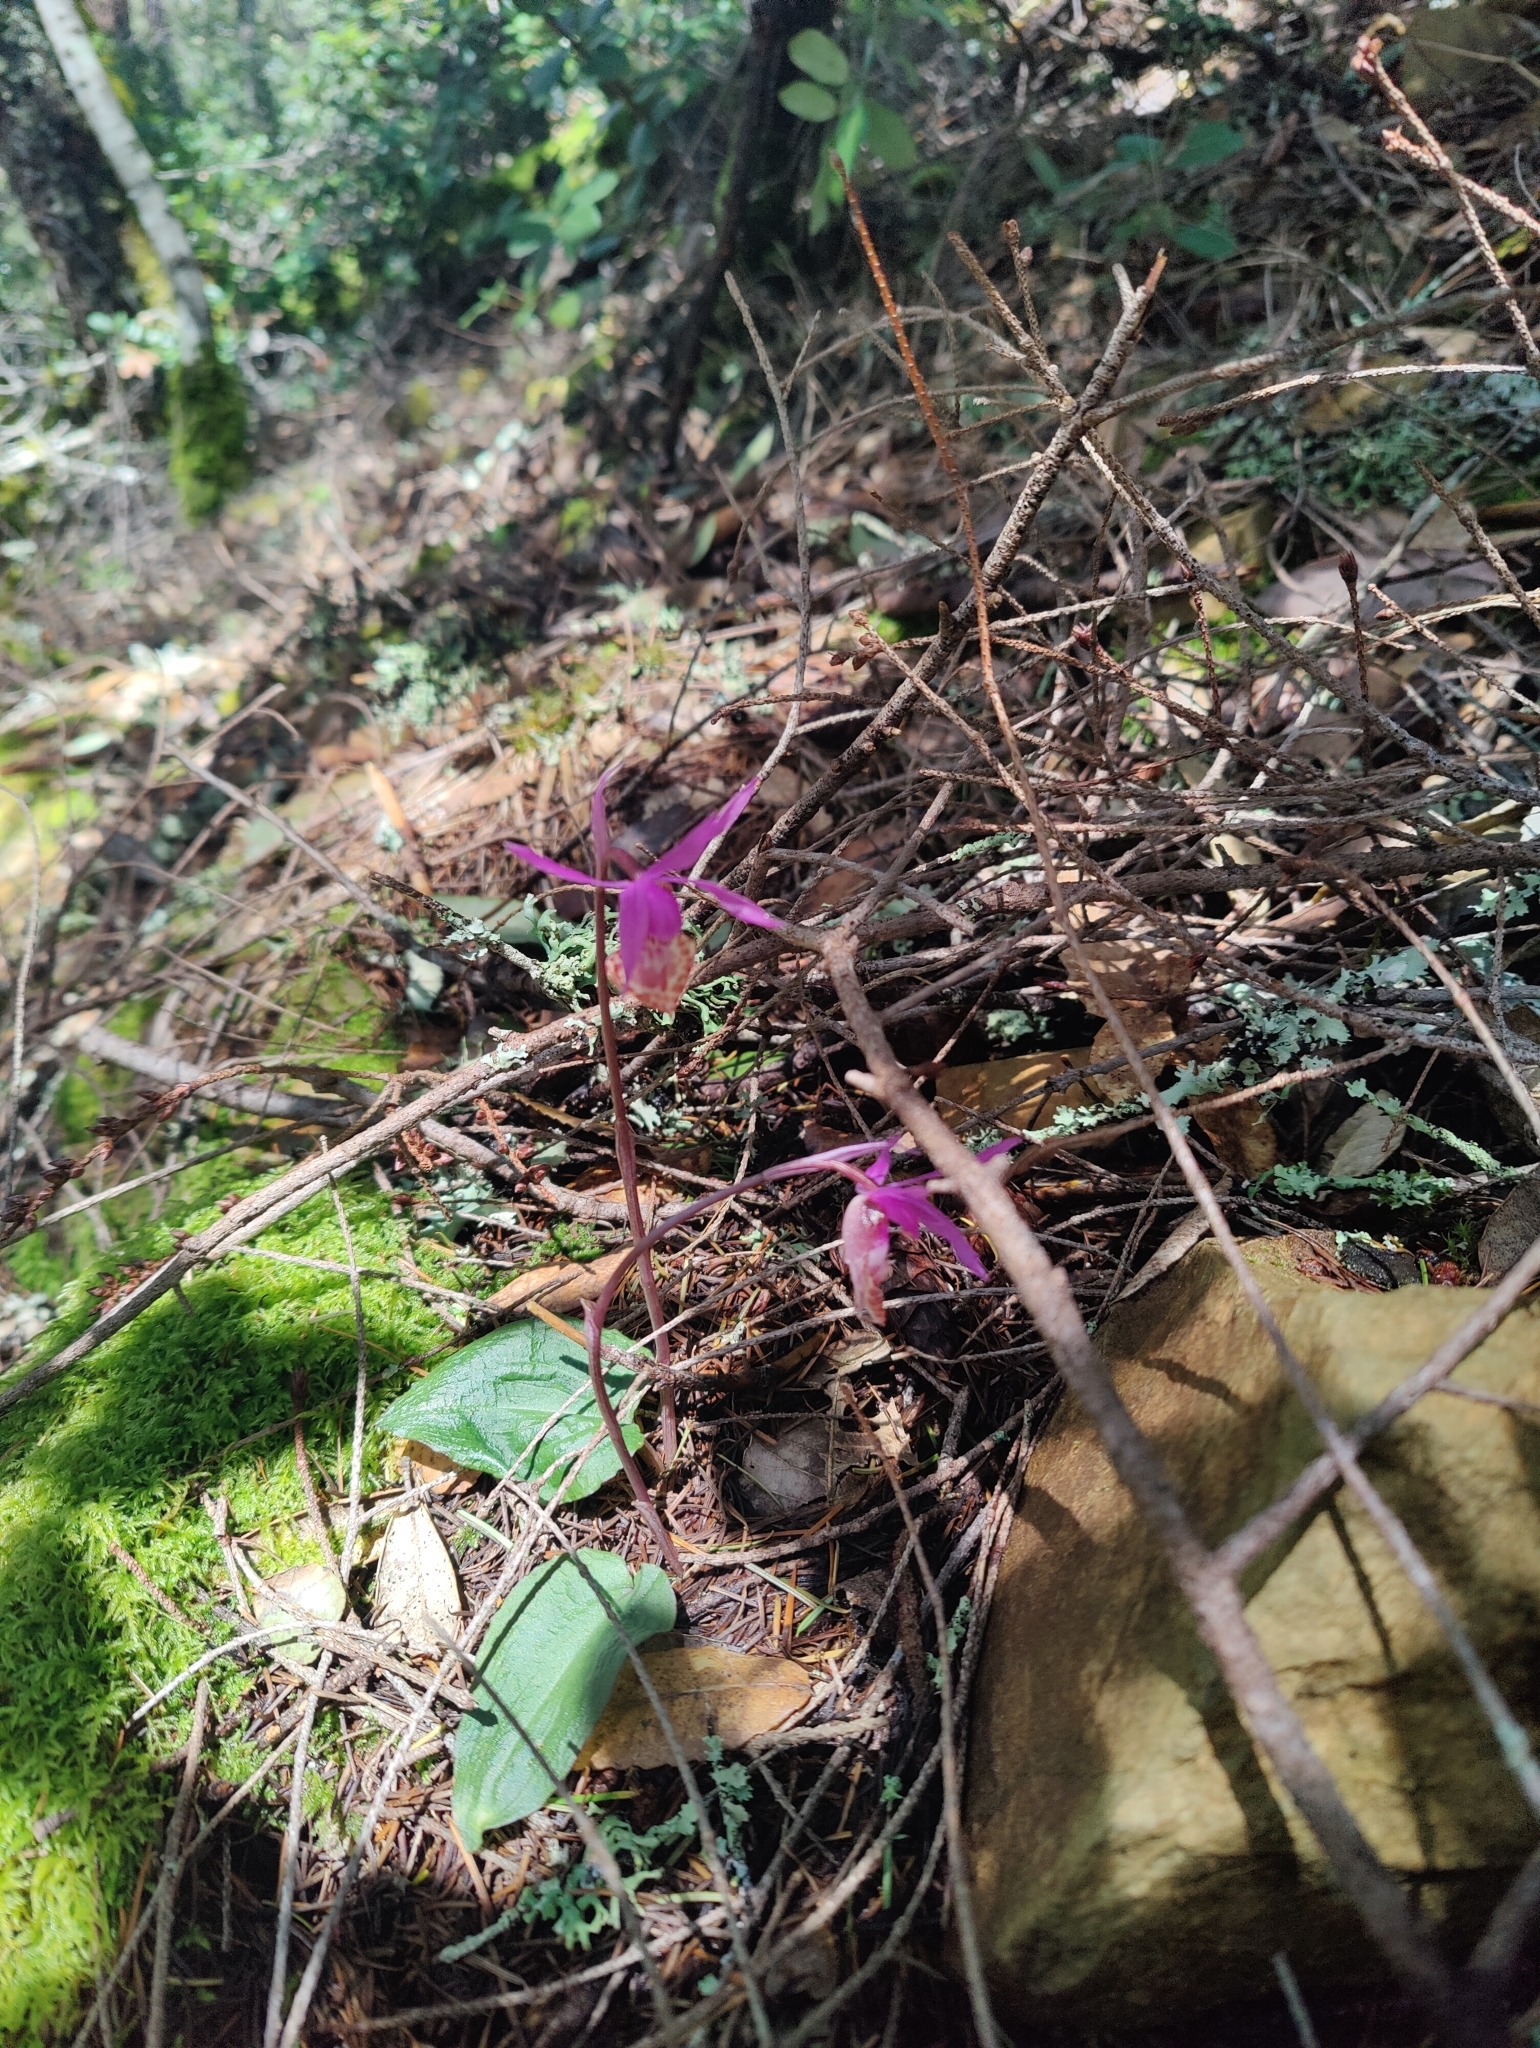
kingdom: Plantae
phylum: Tracheophyta
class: Liliopsida
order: Asparagales
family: Orchidaceae
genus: Calypso
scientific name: Calypso bulbosa
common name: Calypso
